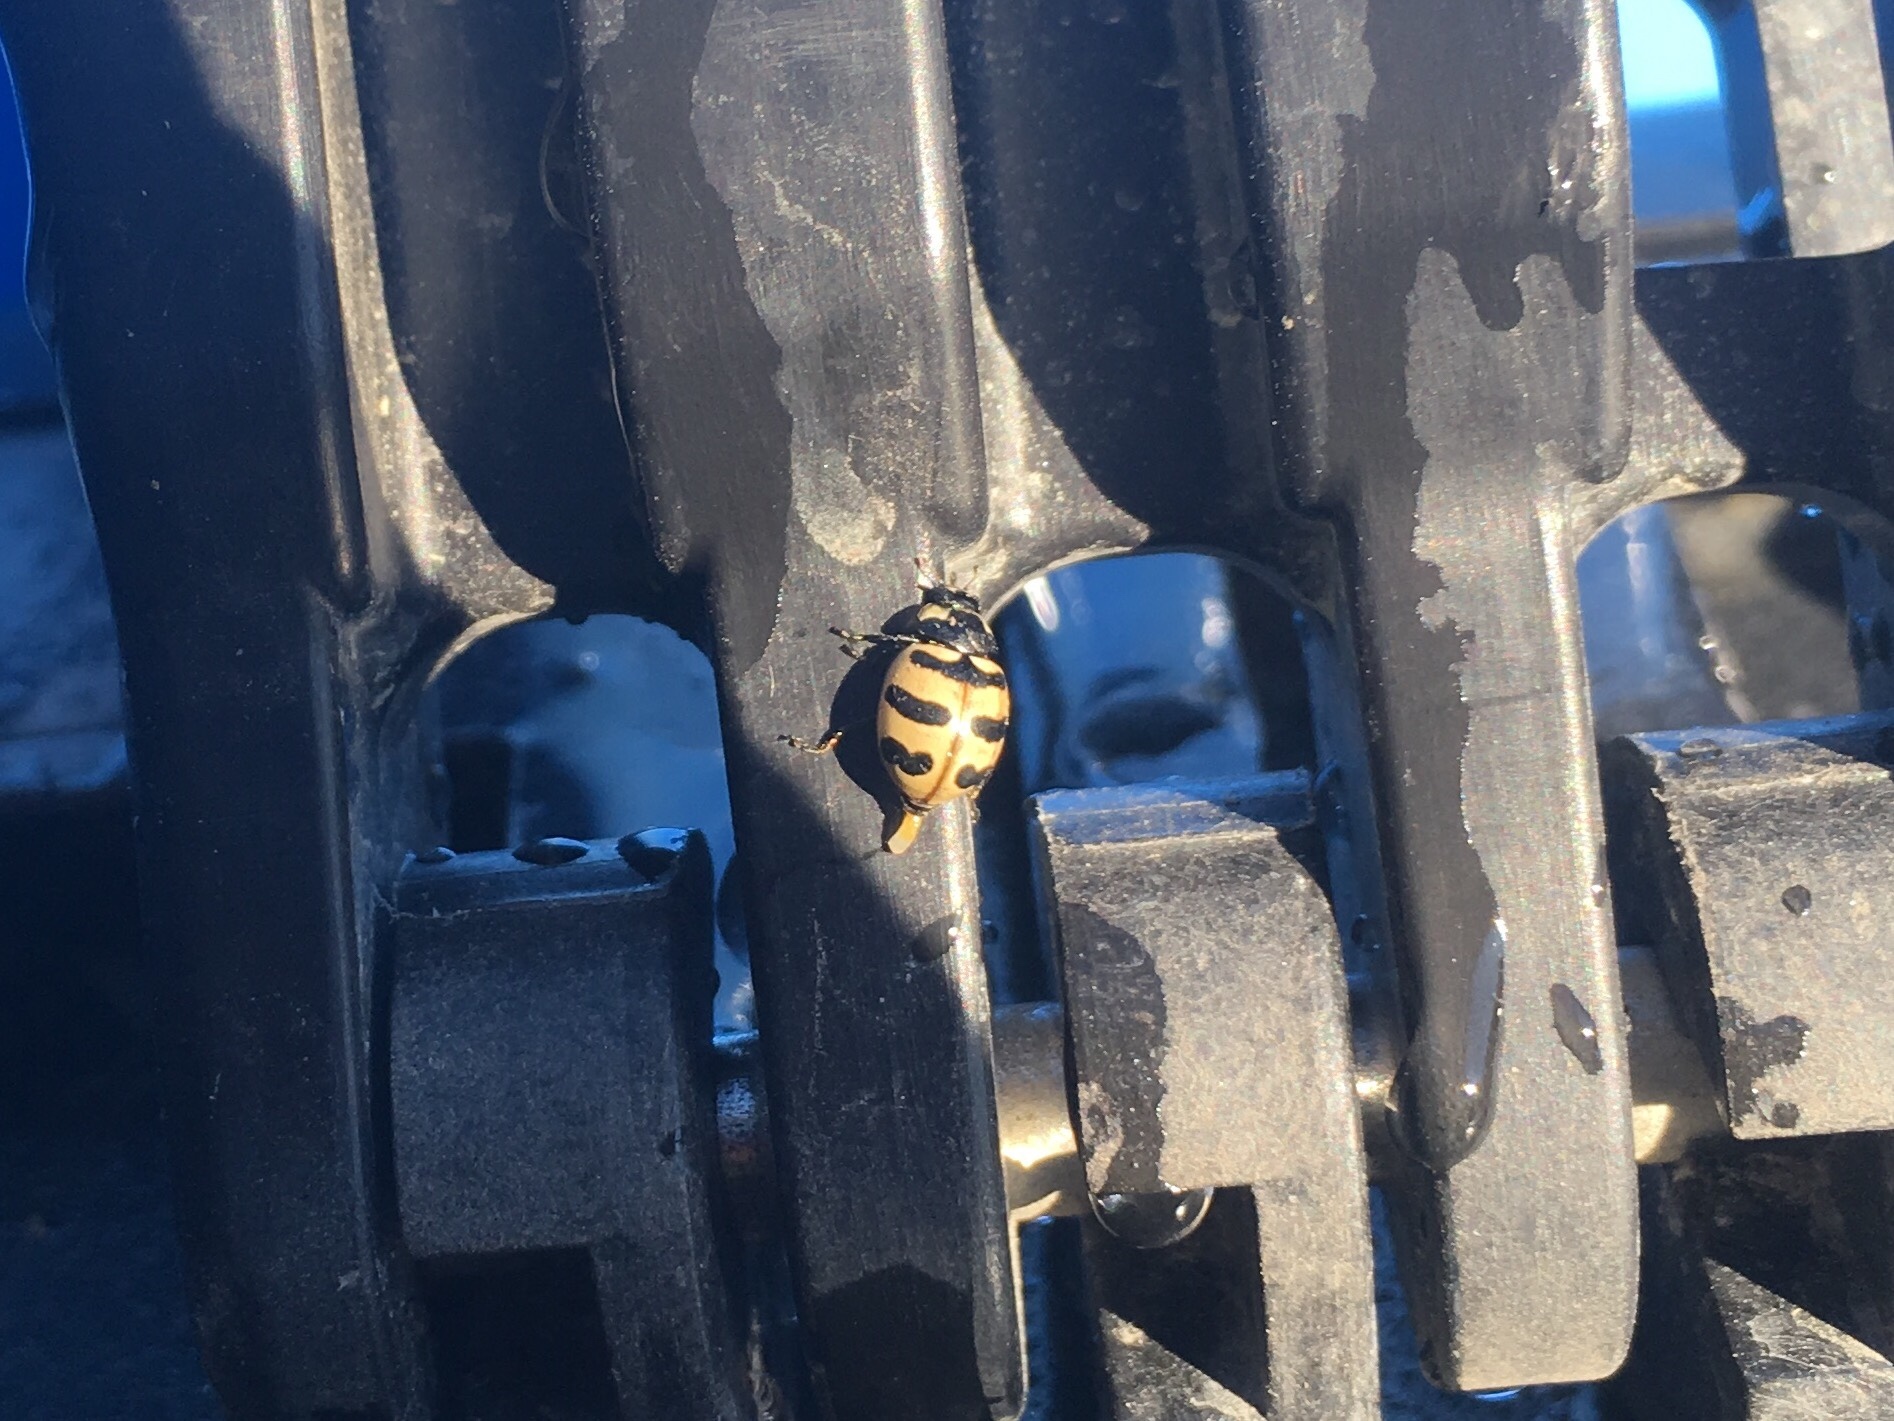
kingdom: Animalia
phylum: Arthropoda
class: Insecta
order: Coleoptera
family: Coccinellidae
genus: Coccinella
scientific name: Coccinella trifasciata
